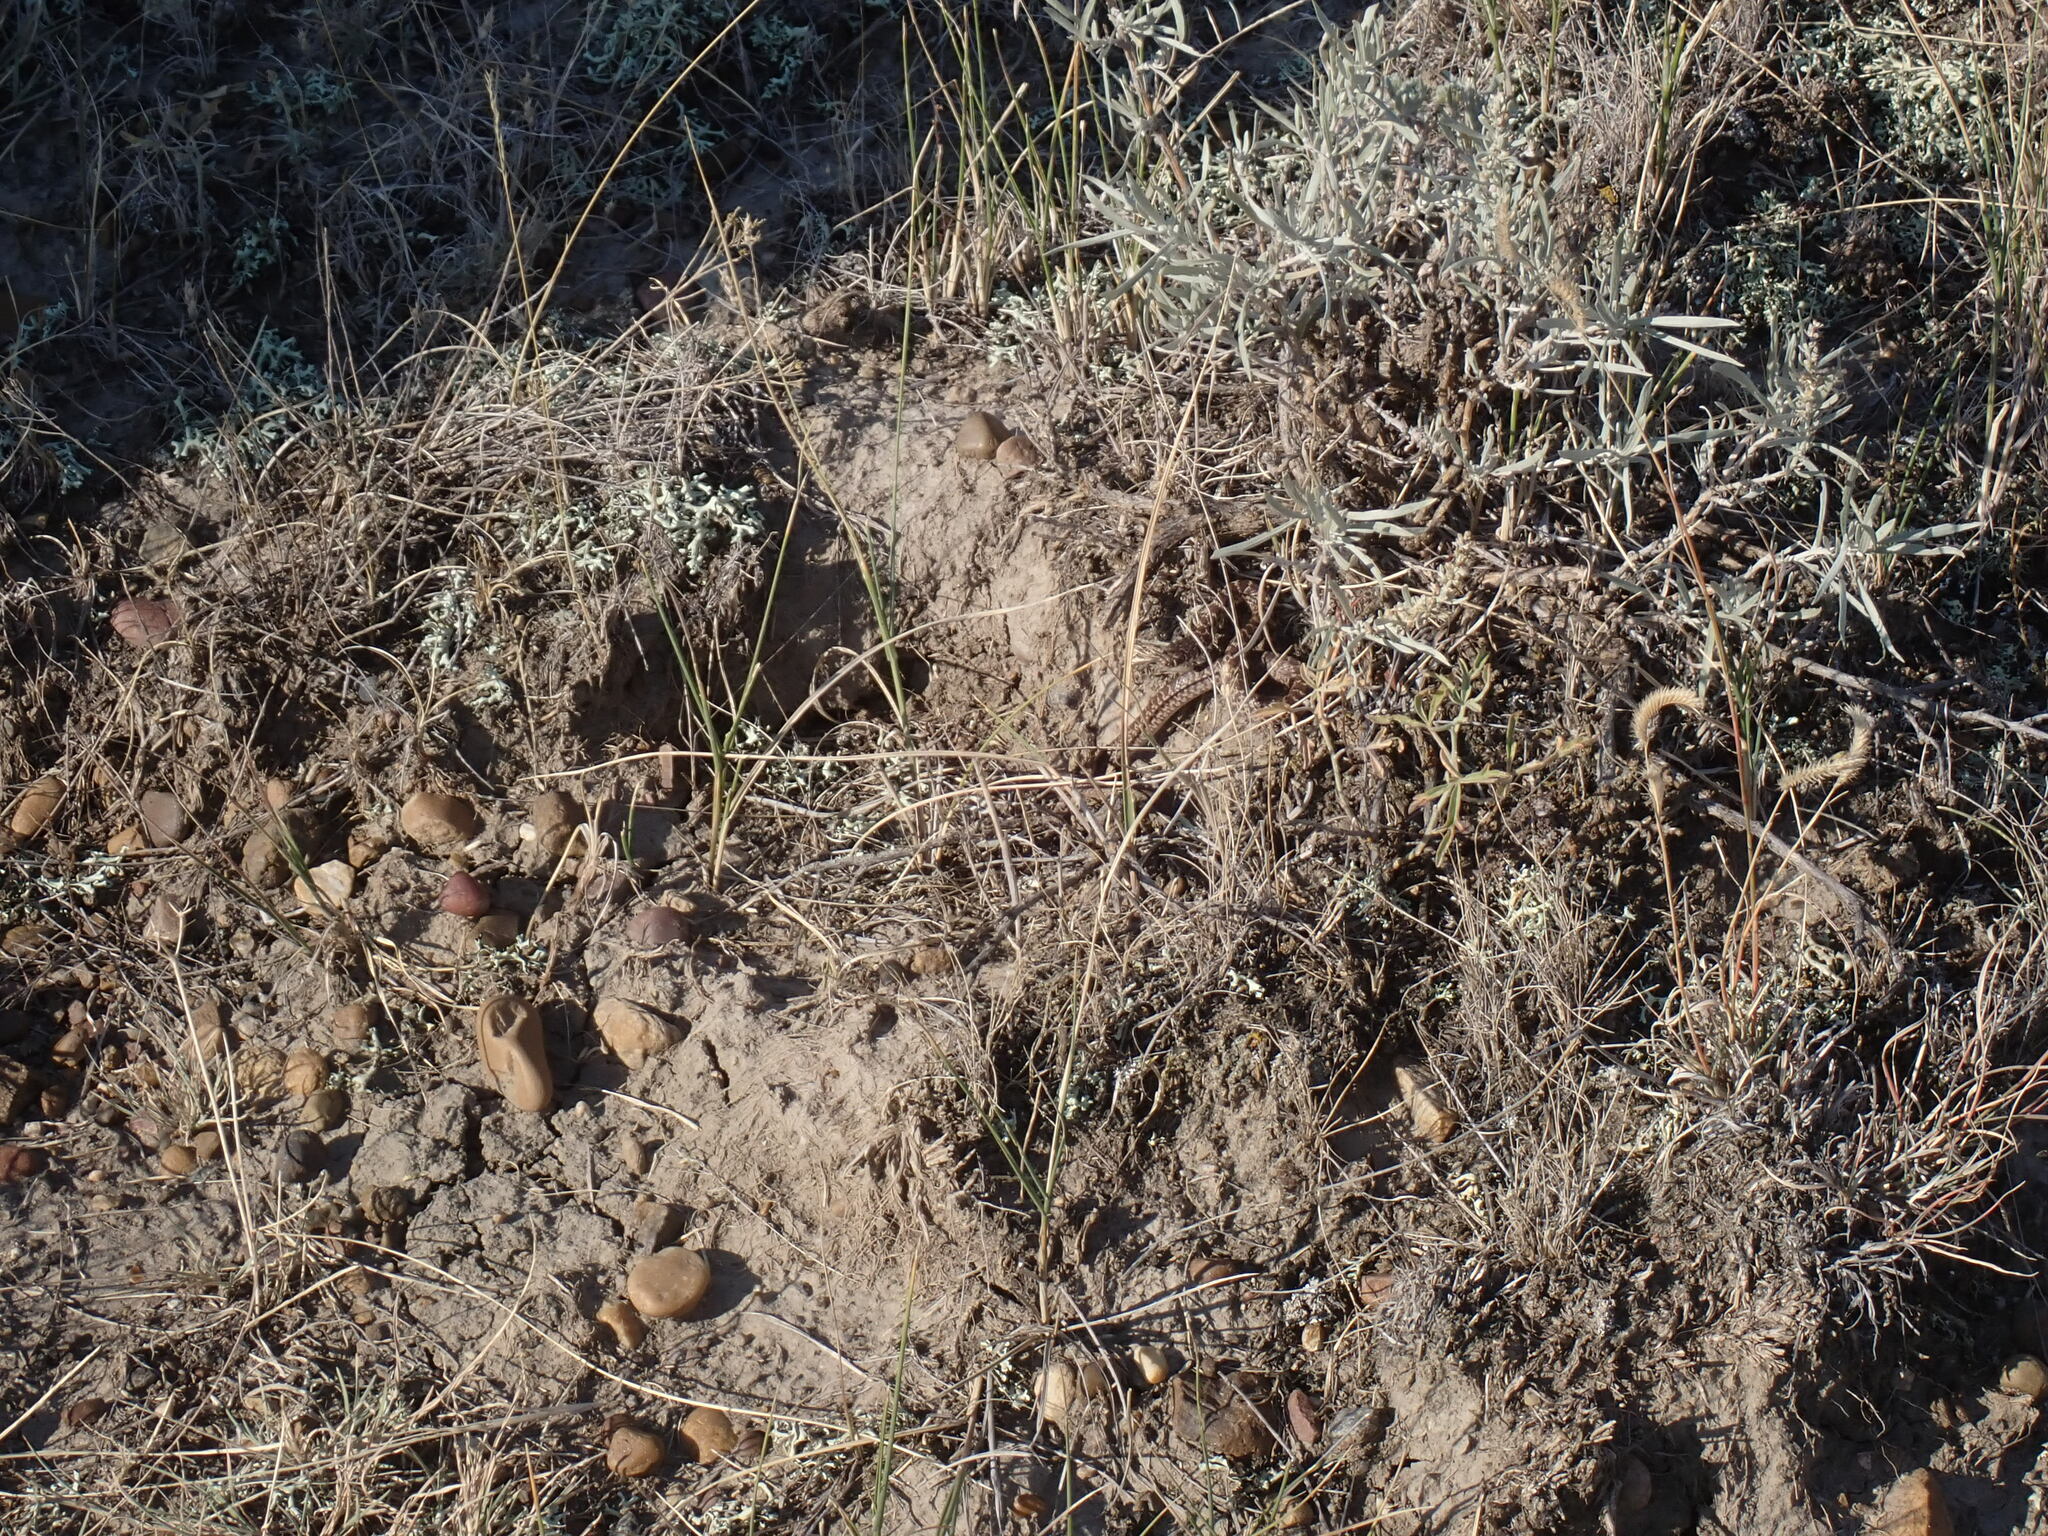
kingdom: Animalia
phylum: Chordata
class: Squamata
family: Colubridae
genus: Coluber
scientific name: Coluber constrictor
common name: Eastern racer
